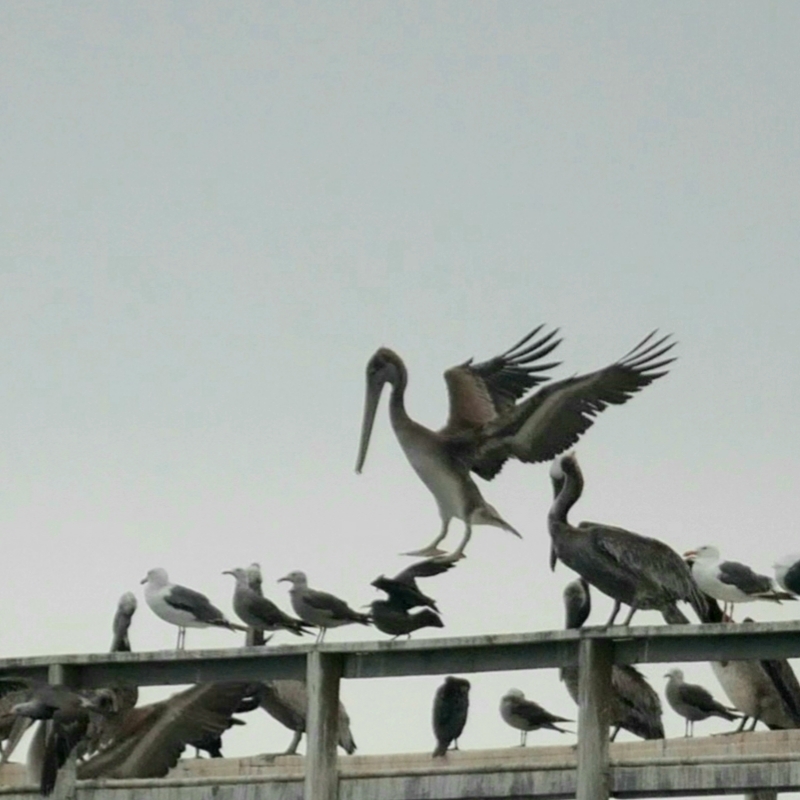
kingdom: Animalia
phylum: Chordata
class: Aves
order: Pelecaniformes
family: Pelecanidae
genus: Pelecanus
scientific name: Pelecanus occidentalis
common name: Brown pelican
